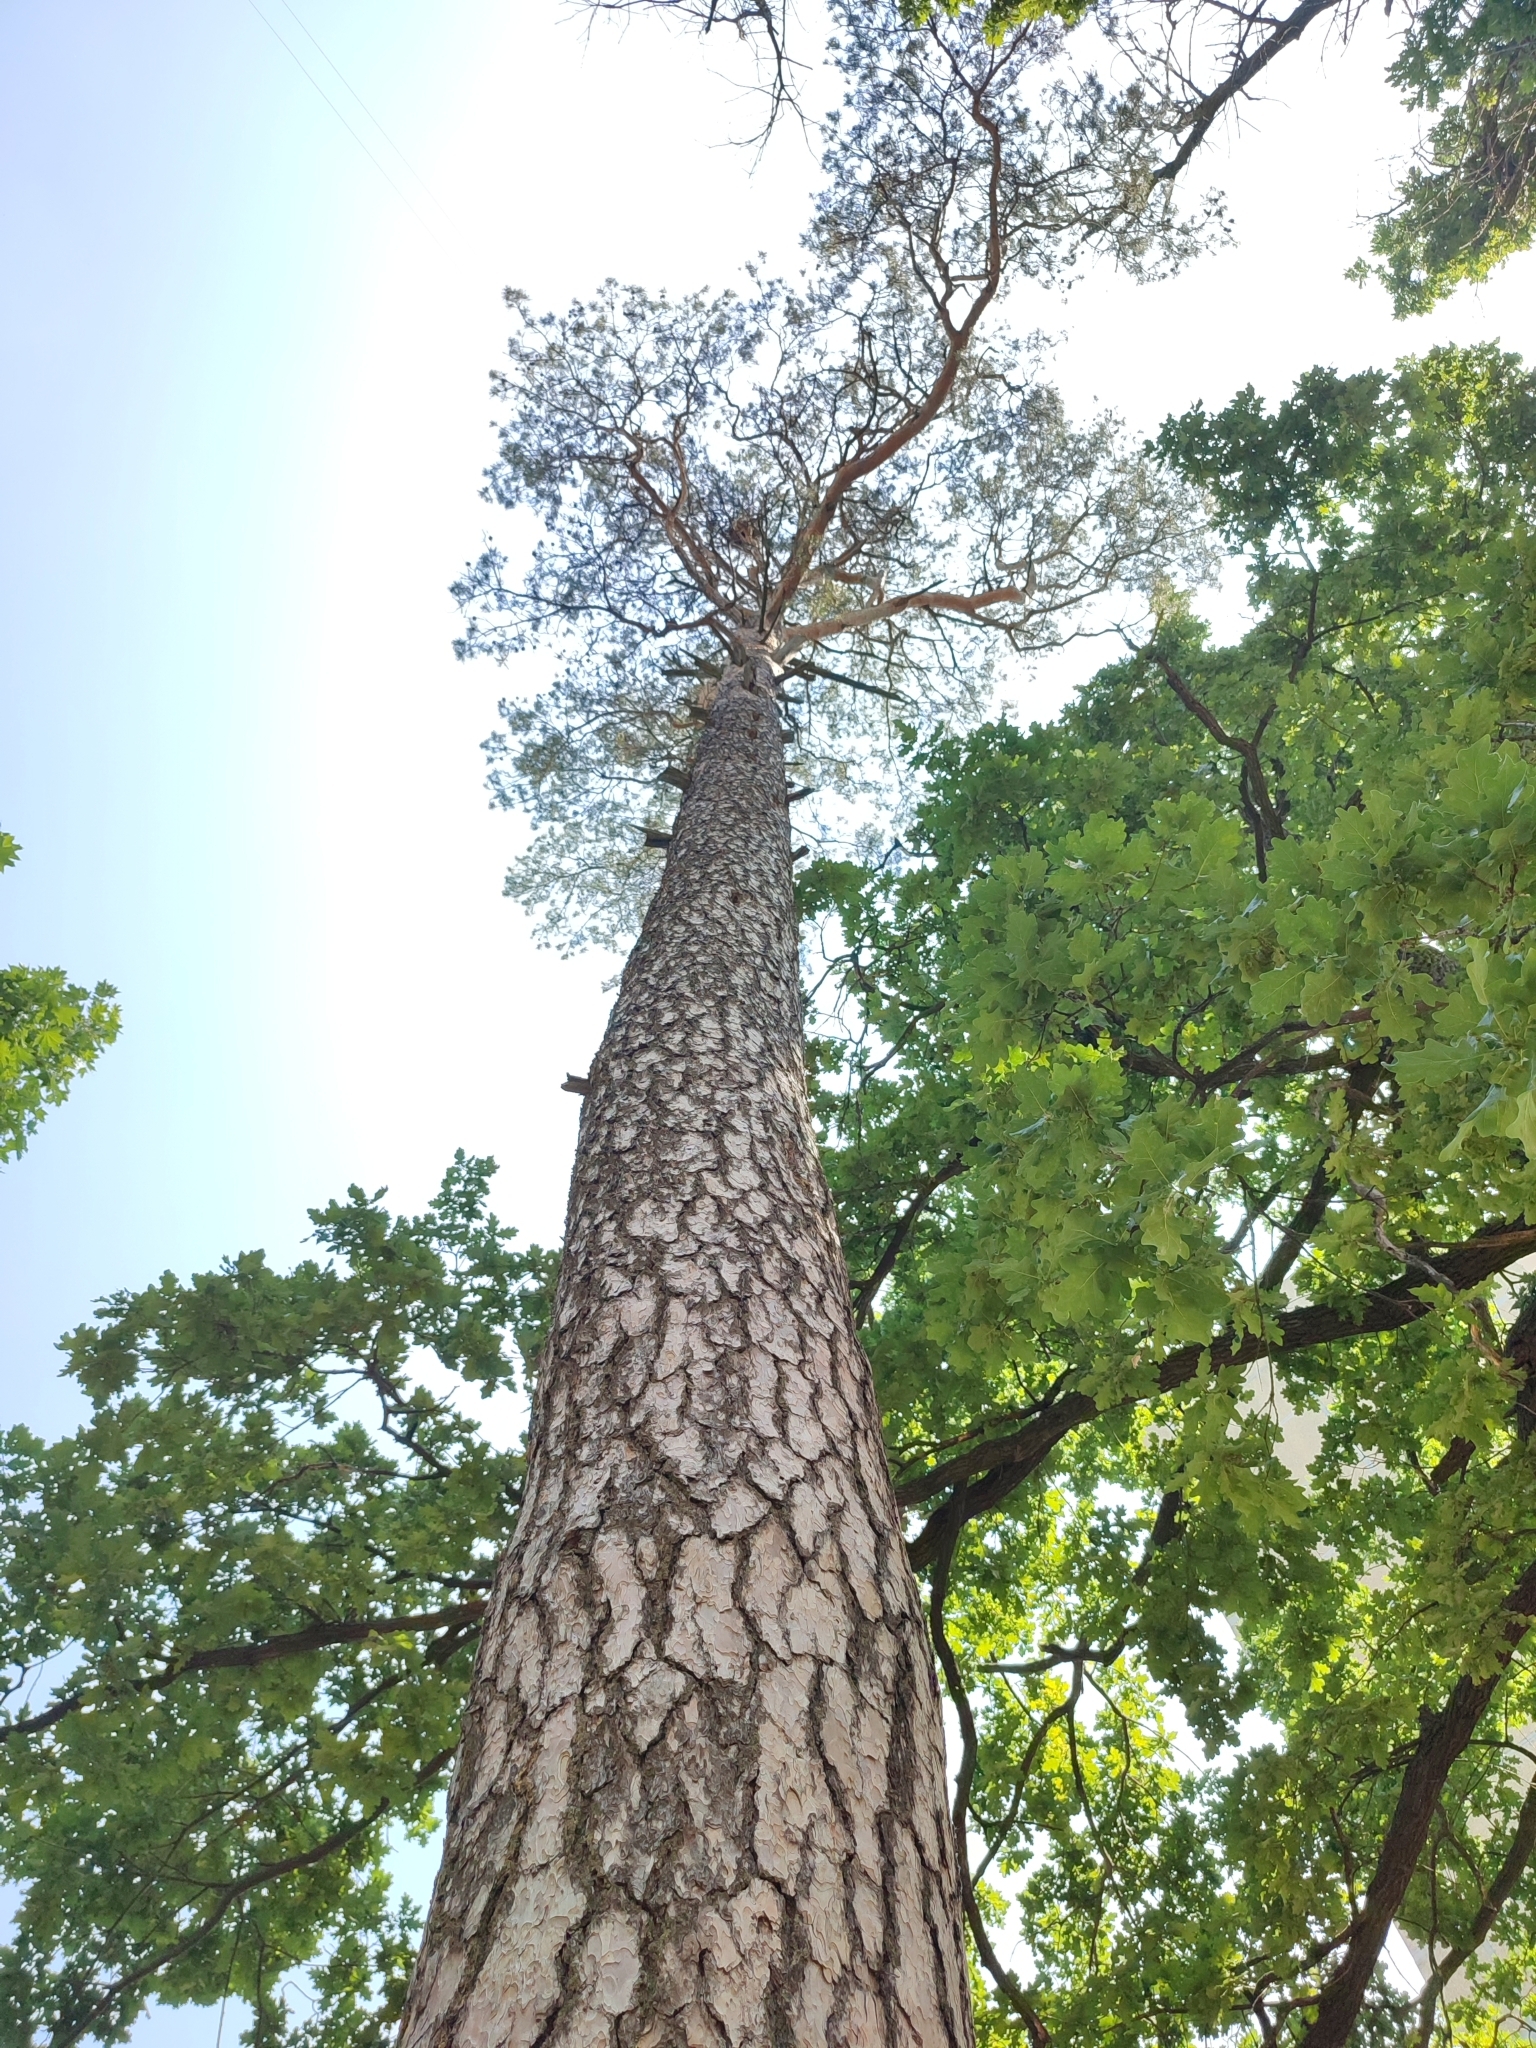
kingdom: Plantae
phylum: Tracheophyta
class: Pinopsida
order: Pinales
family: Pinaceae
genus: Pinus
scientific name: Pinus sylvestris
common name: Scots pine
